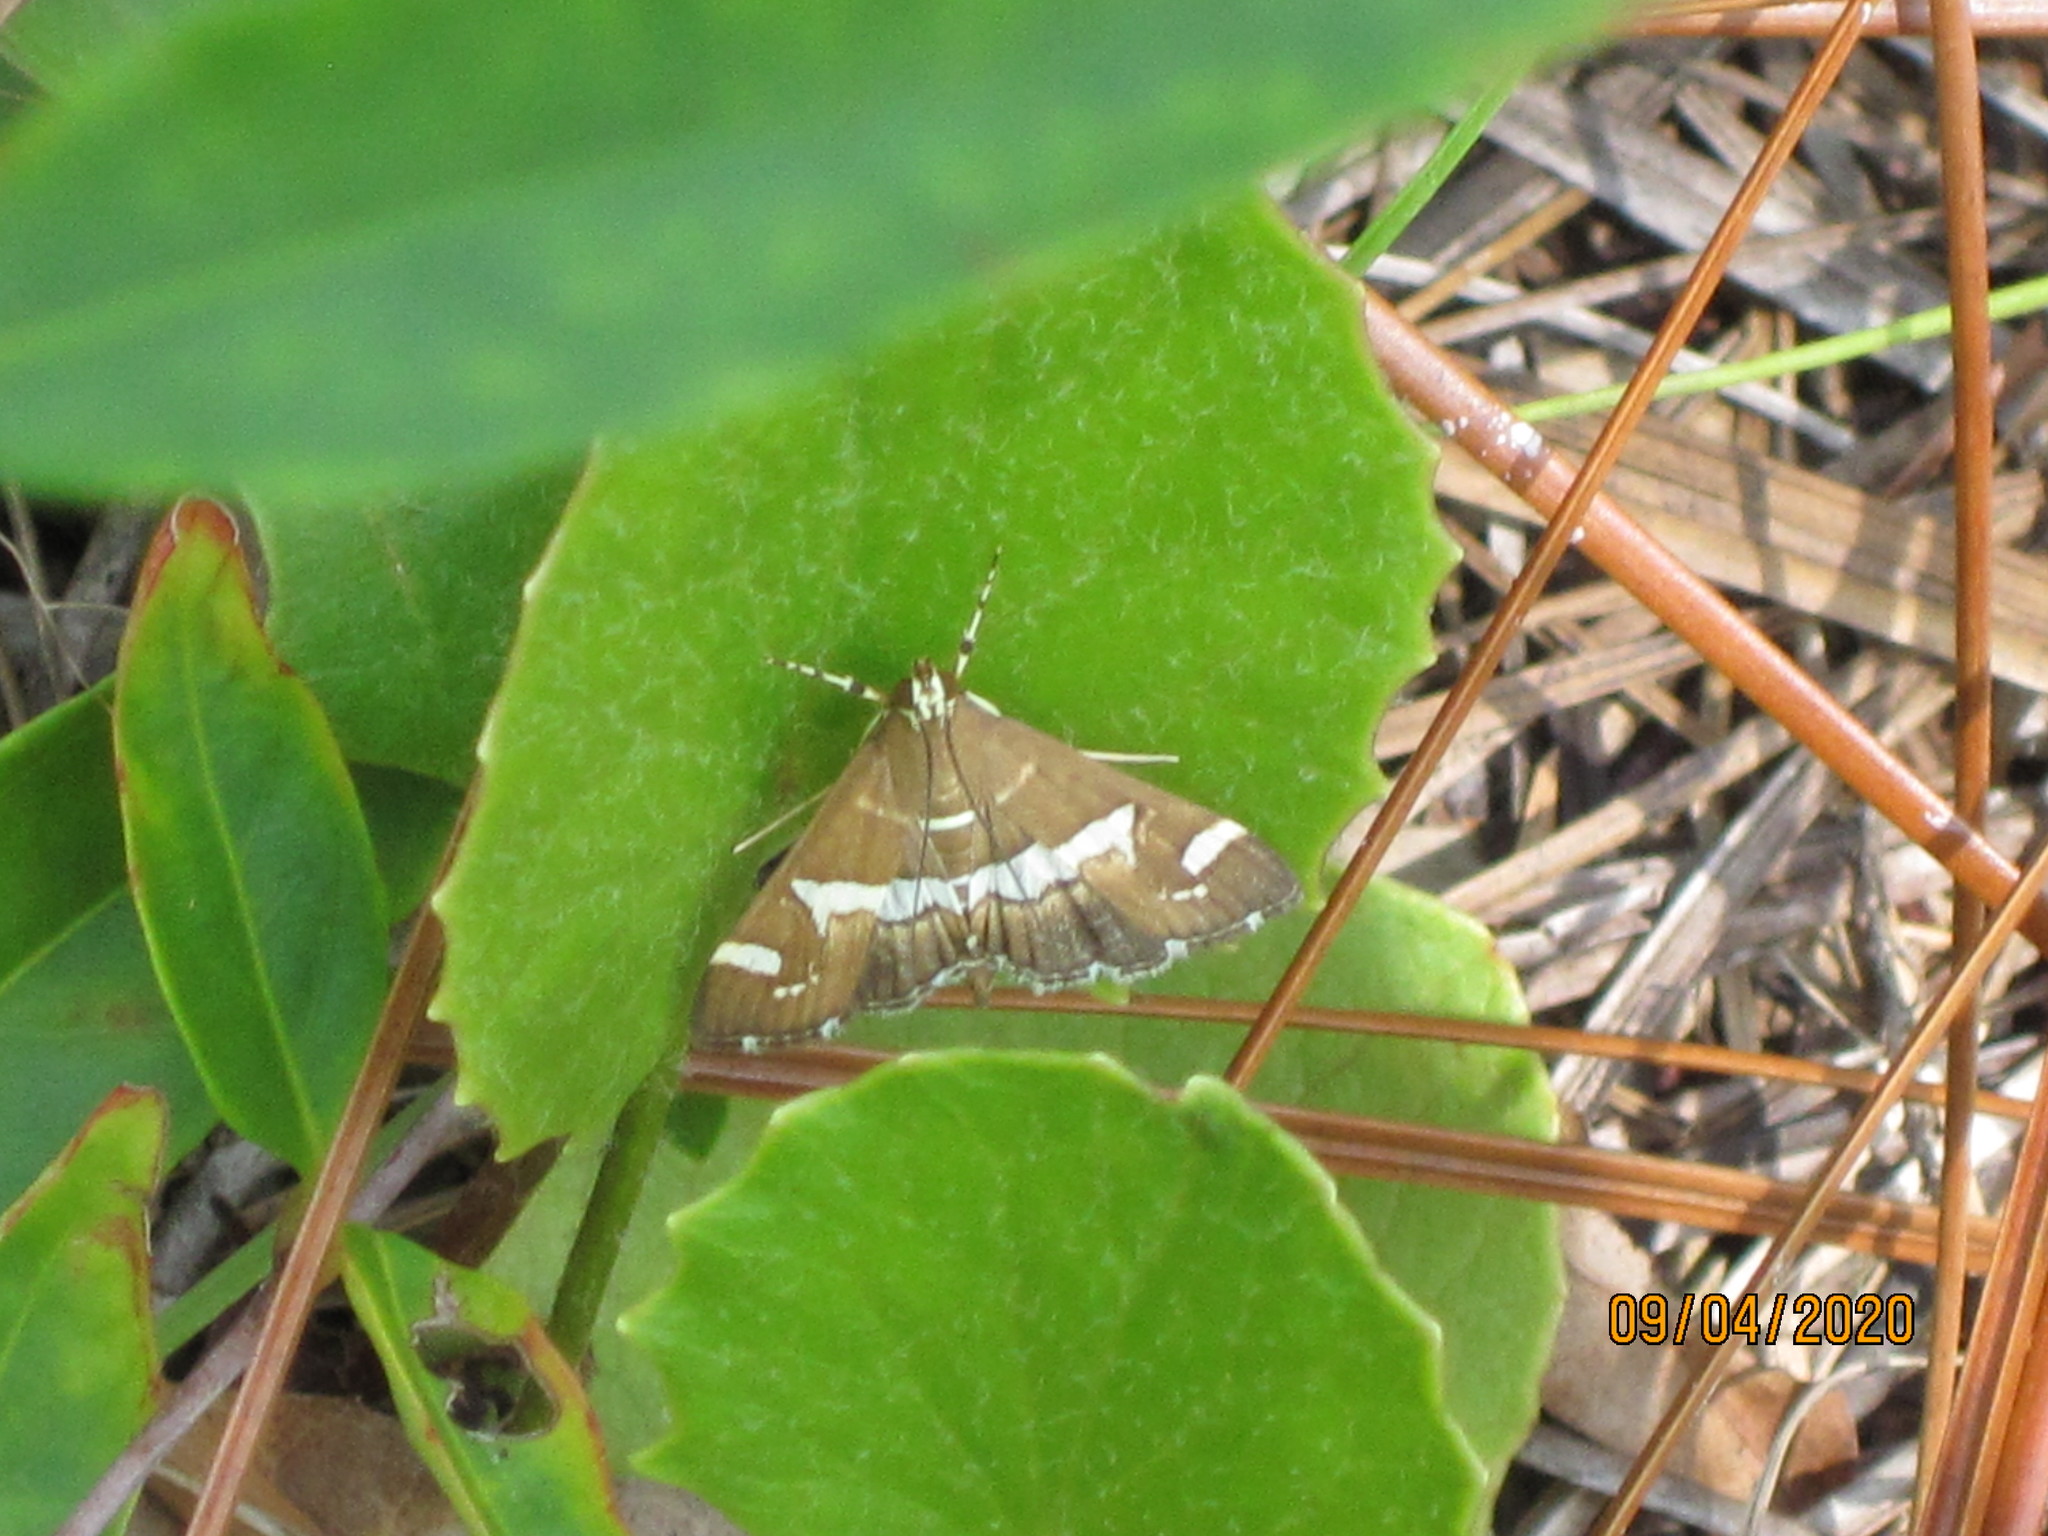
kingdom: Animalia
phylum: Arthropoda
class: Insecta
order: Lepidoptera
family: Crambidae
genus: Spoladea
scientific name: Spoladea recurvalis
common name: Beet webworm moth
